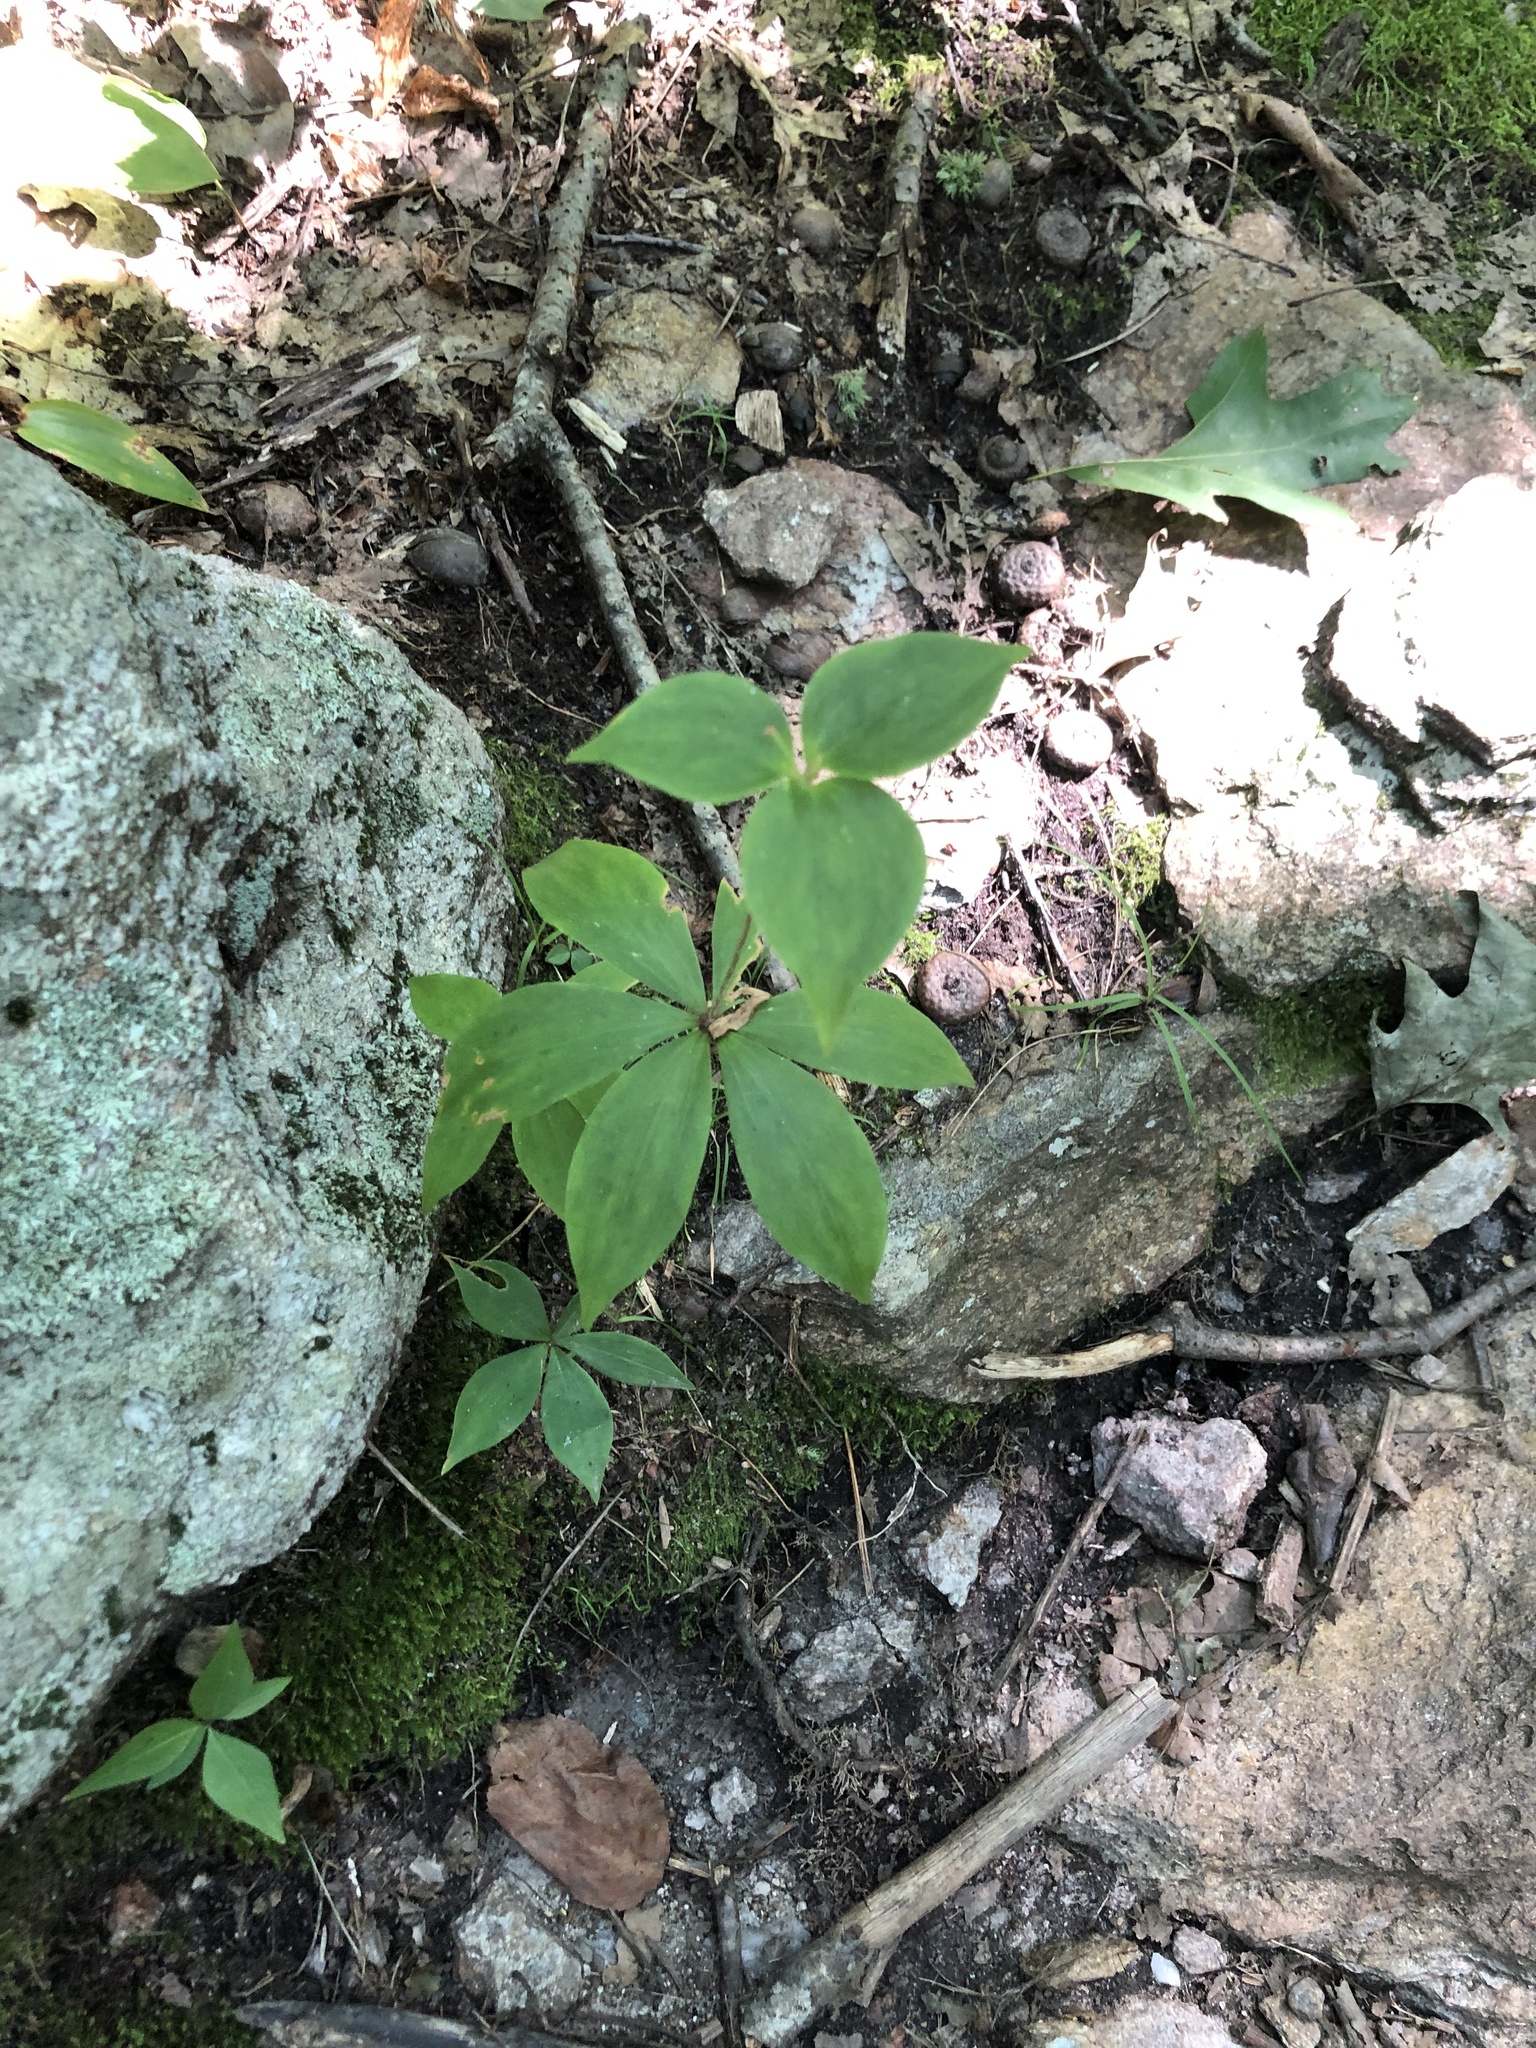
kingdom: Plantae
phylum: Tracheophyta
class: Liliopsida
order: Liliales
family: Liliaceae
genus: Medeola
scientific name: Medeola virginiana
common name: Indian cucumber-root
